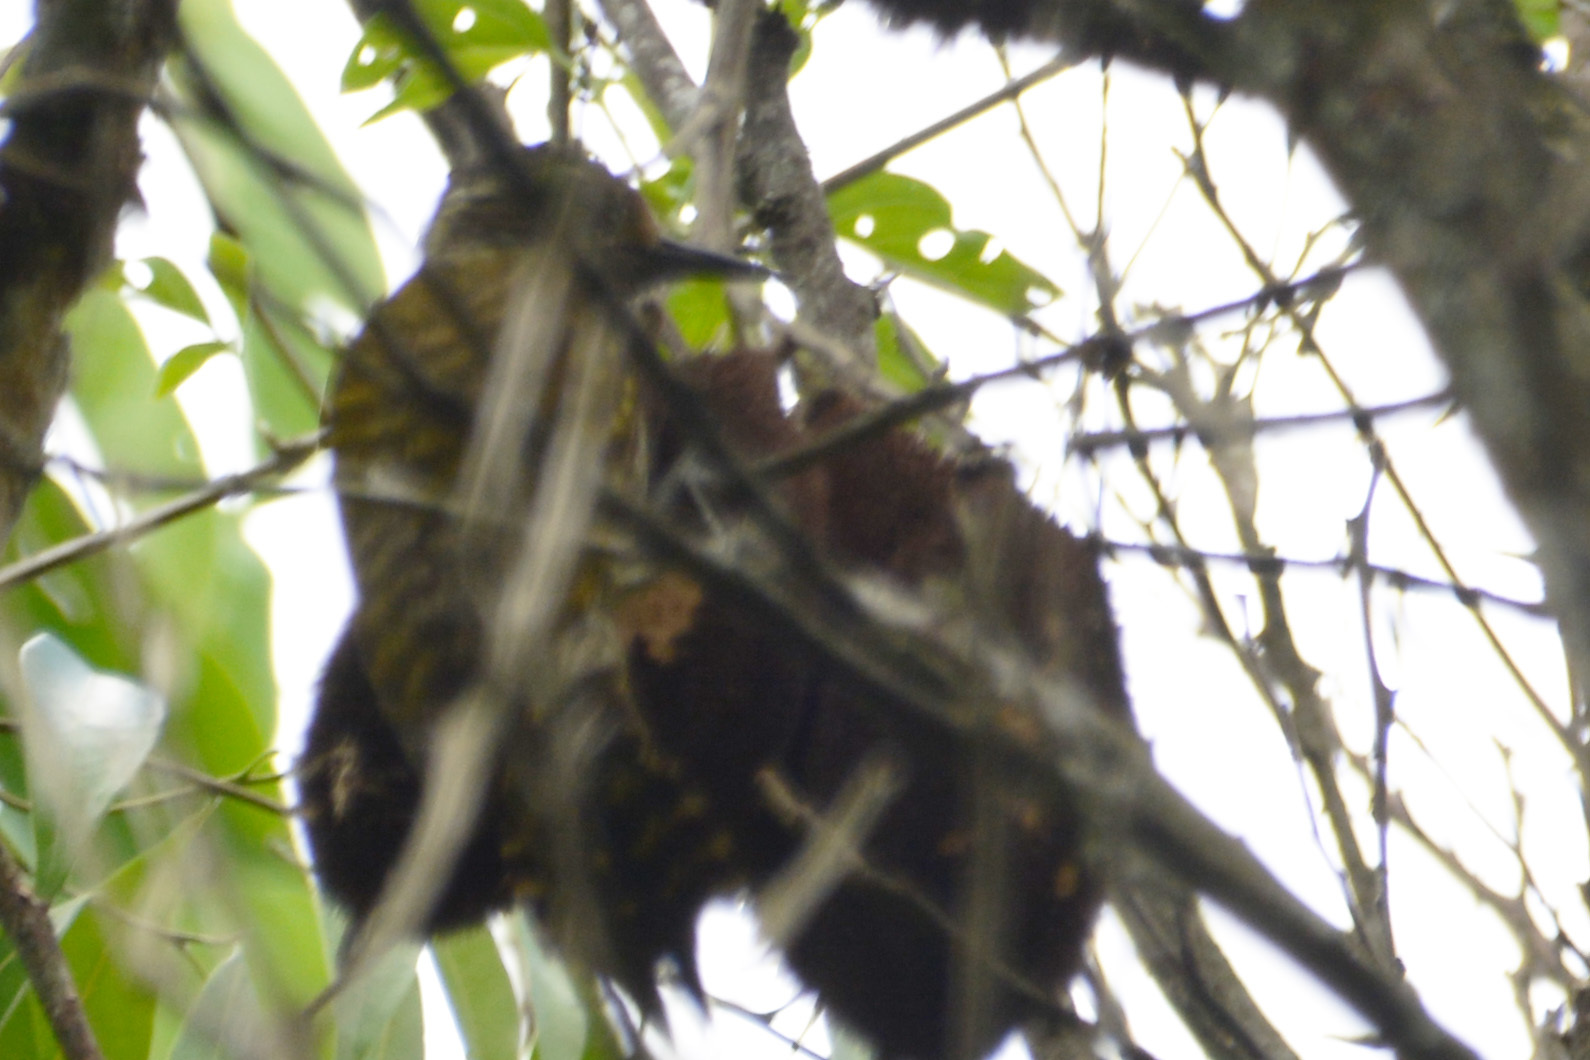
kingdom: Animalia
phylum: Chordata
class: Aves
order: Piciformes
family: Picidae
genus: Veniliornis
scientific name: Veniliornis spilogaster
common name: White-spotted woodpecker
